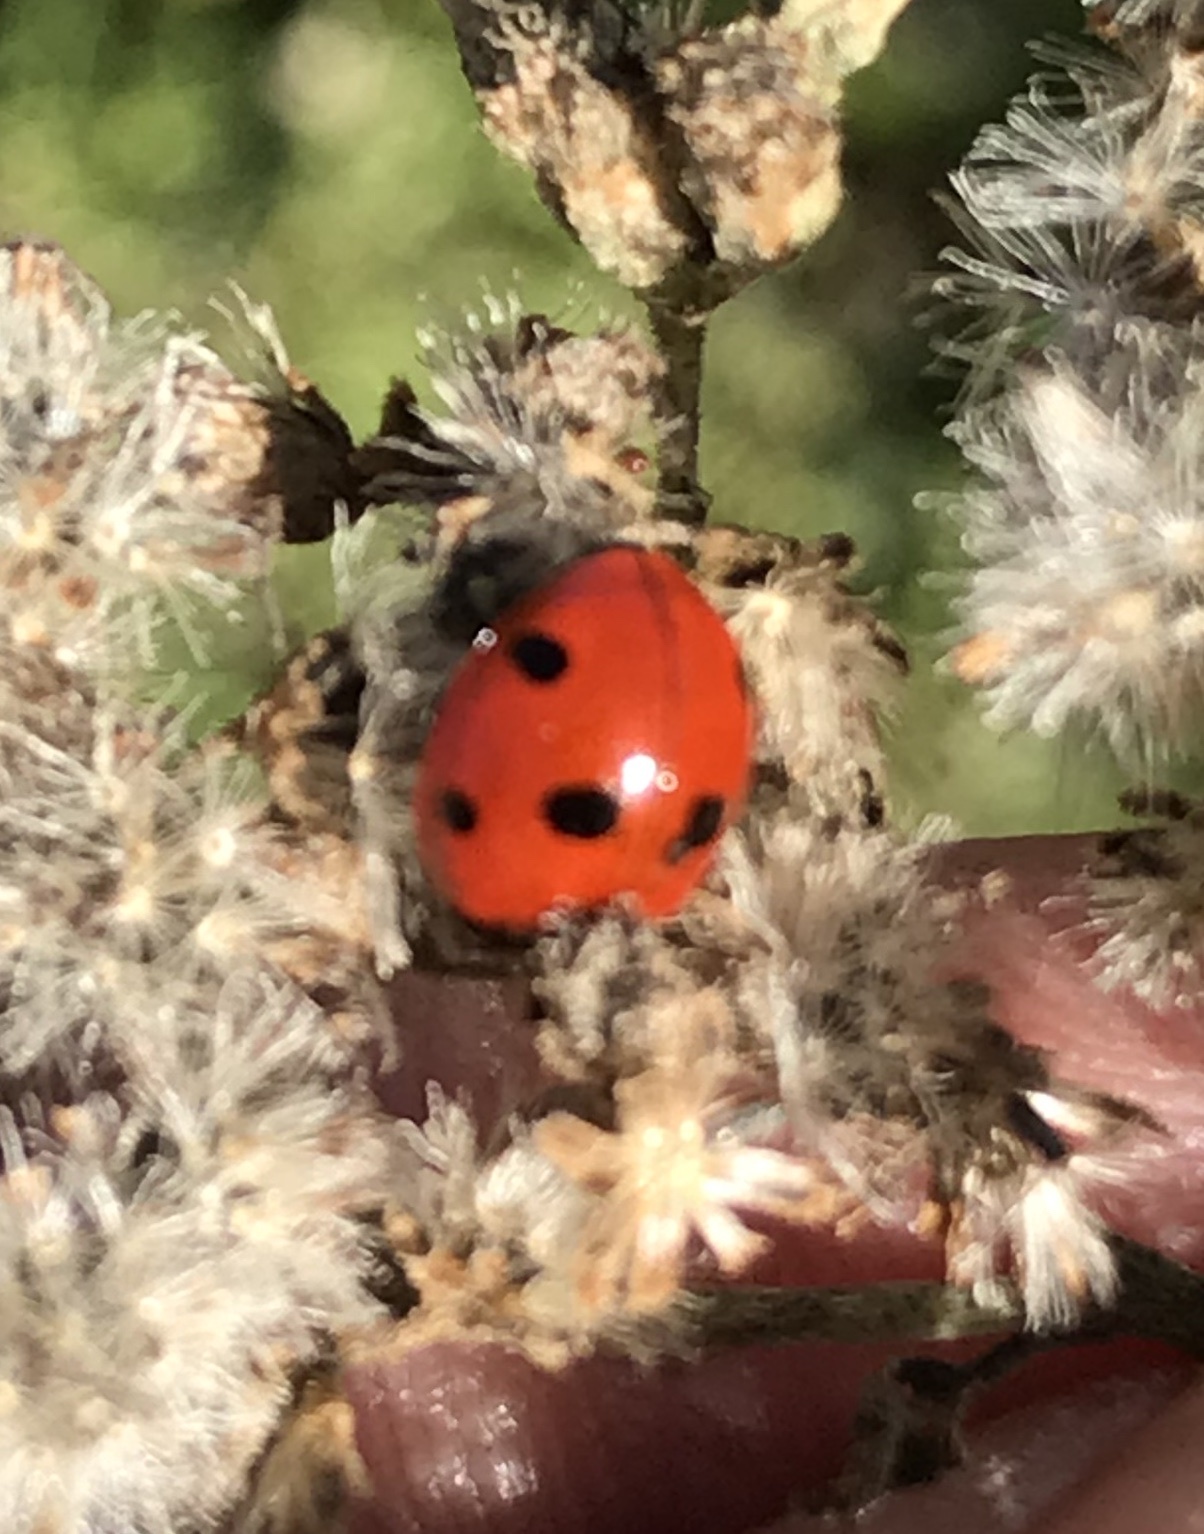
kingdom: Animalia
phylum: Arthropoda
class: Insecta
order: Coleoptera
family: Coccinellidae
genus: Coccinella
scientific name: Coccinella septempunctata
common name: Sevenspotted lady beetle
